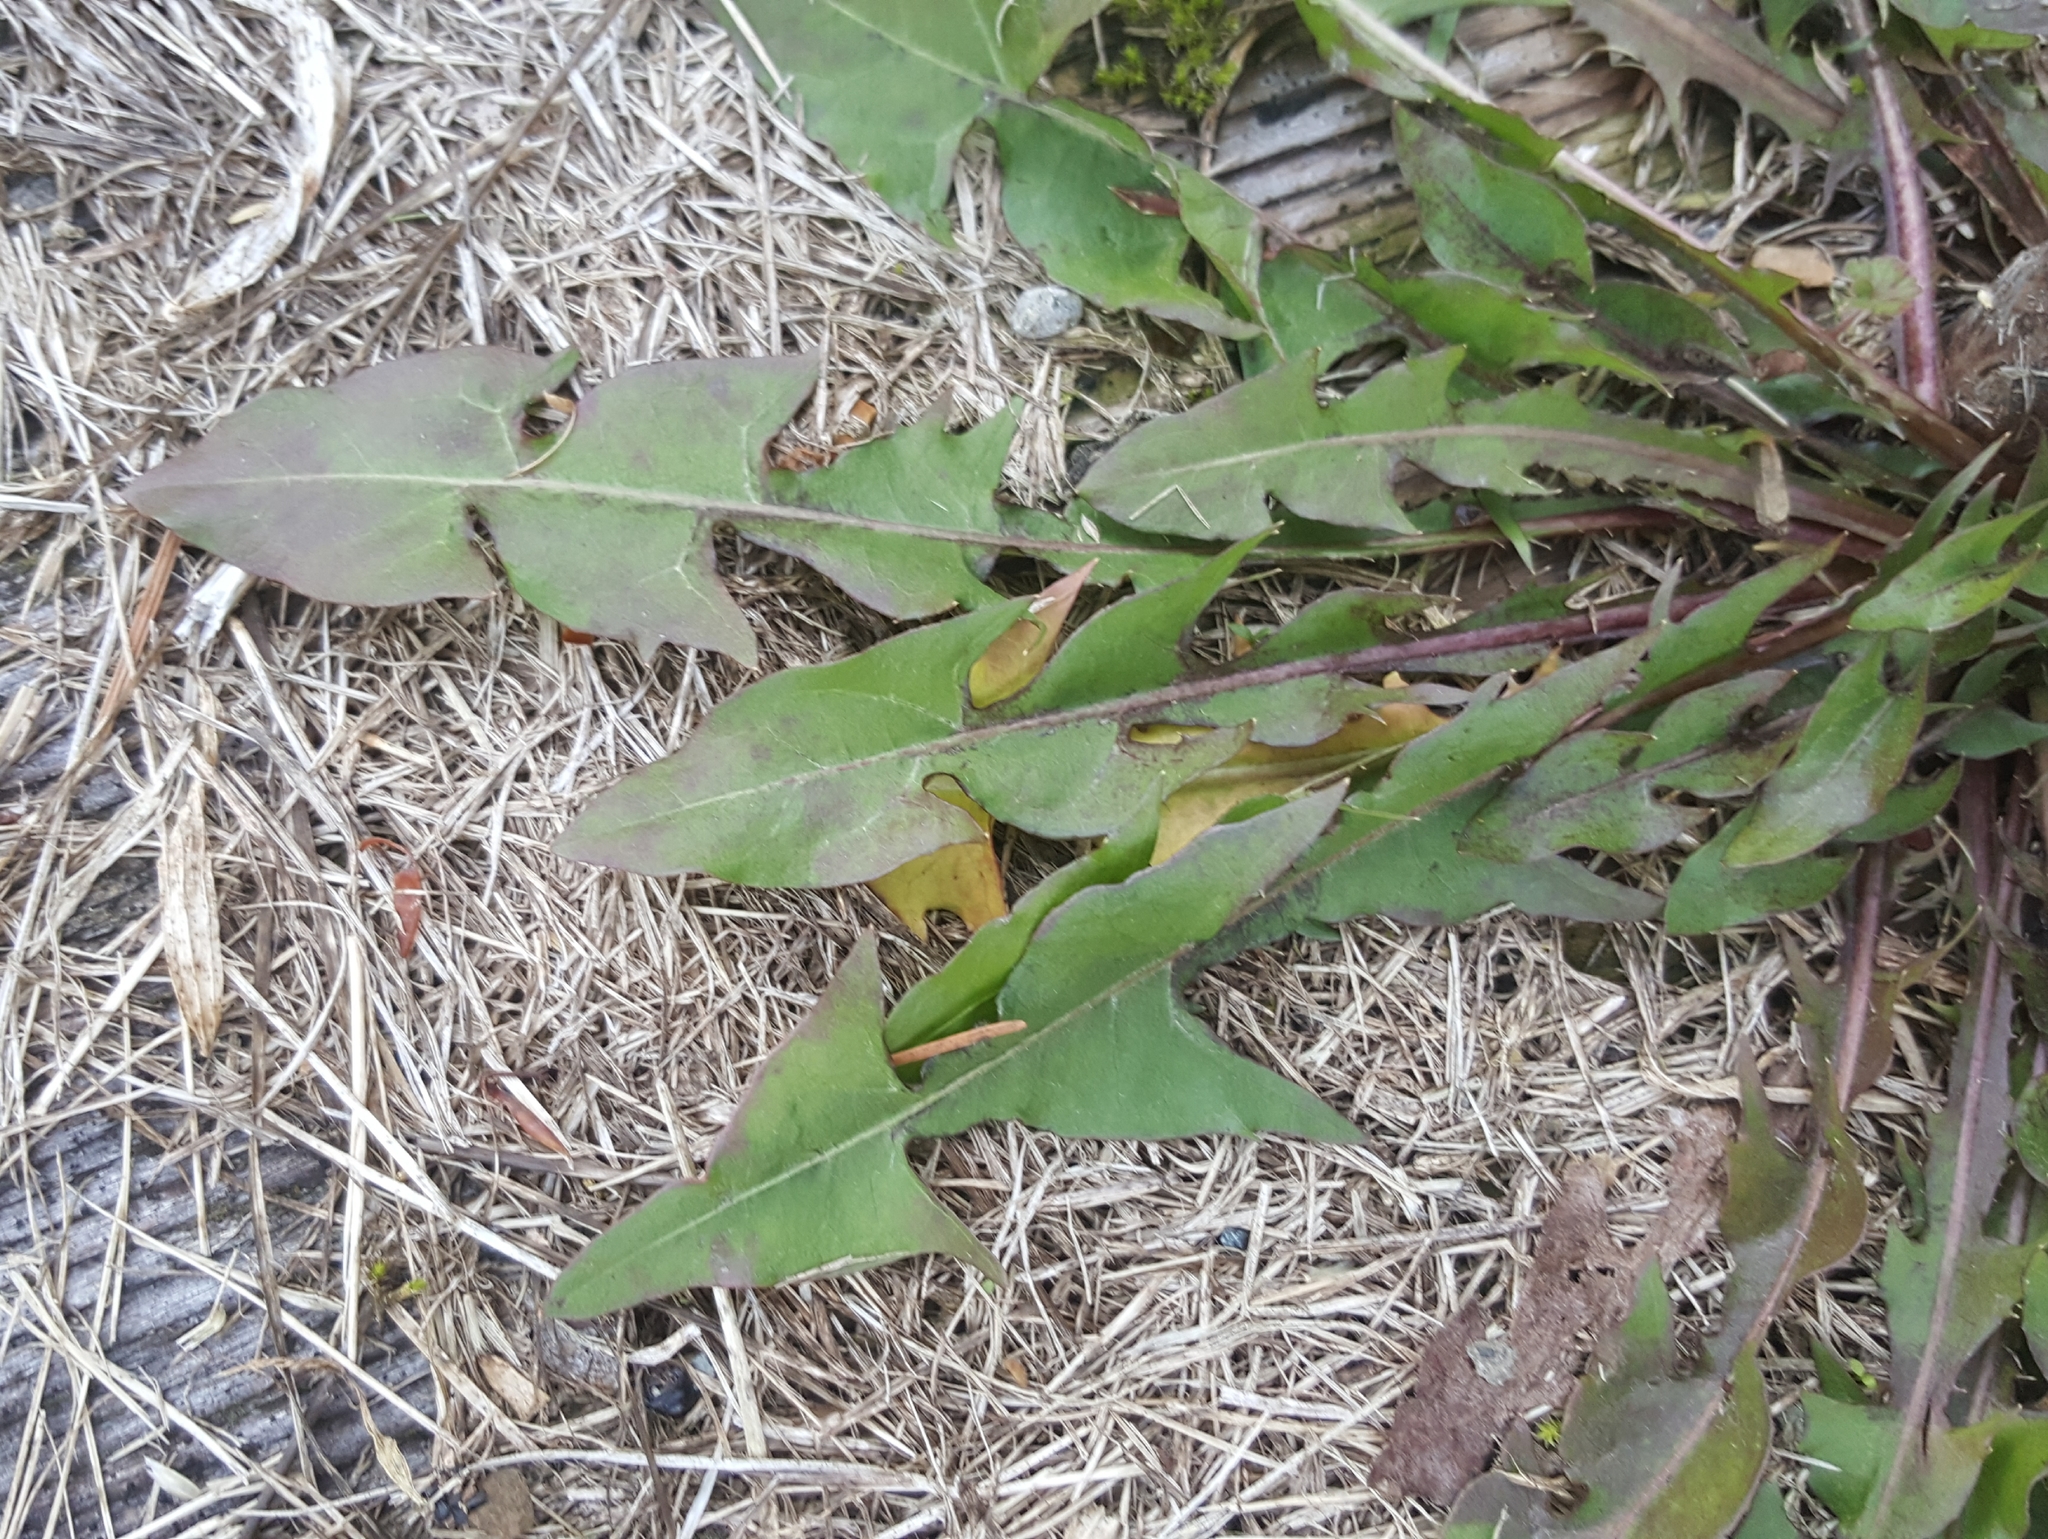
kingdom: Plantae
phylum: Tracheophyta
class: Magnoliopsida
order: Asterales
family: Asteraceae
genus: Taraxacum
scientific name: Taraxacum officinale
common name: Common dandelion
